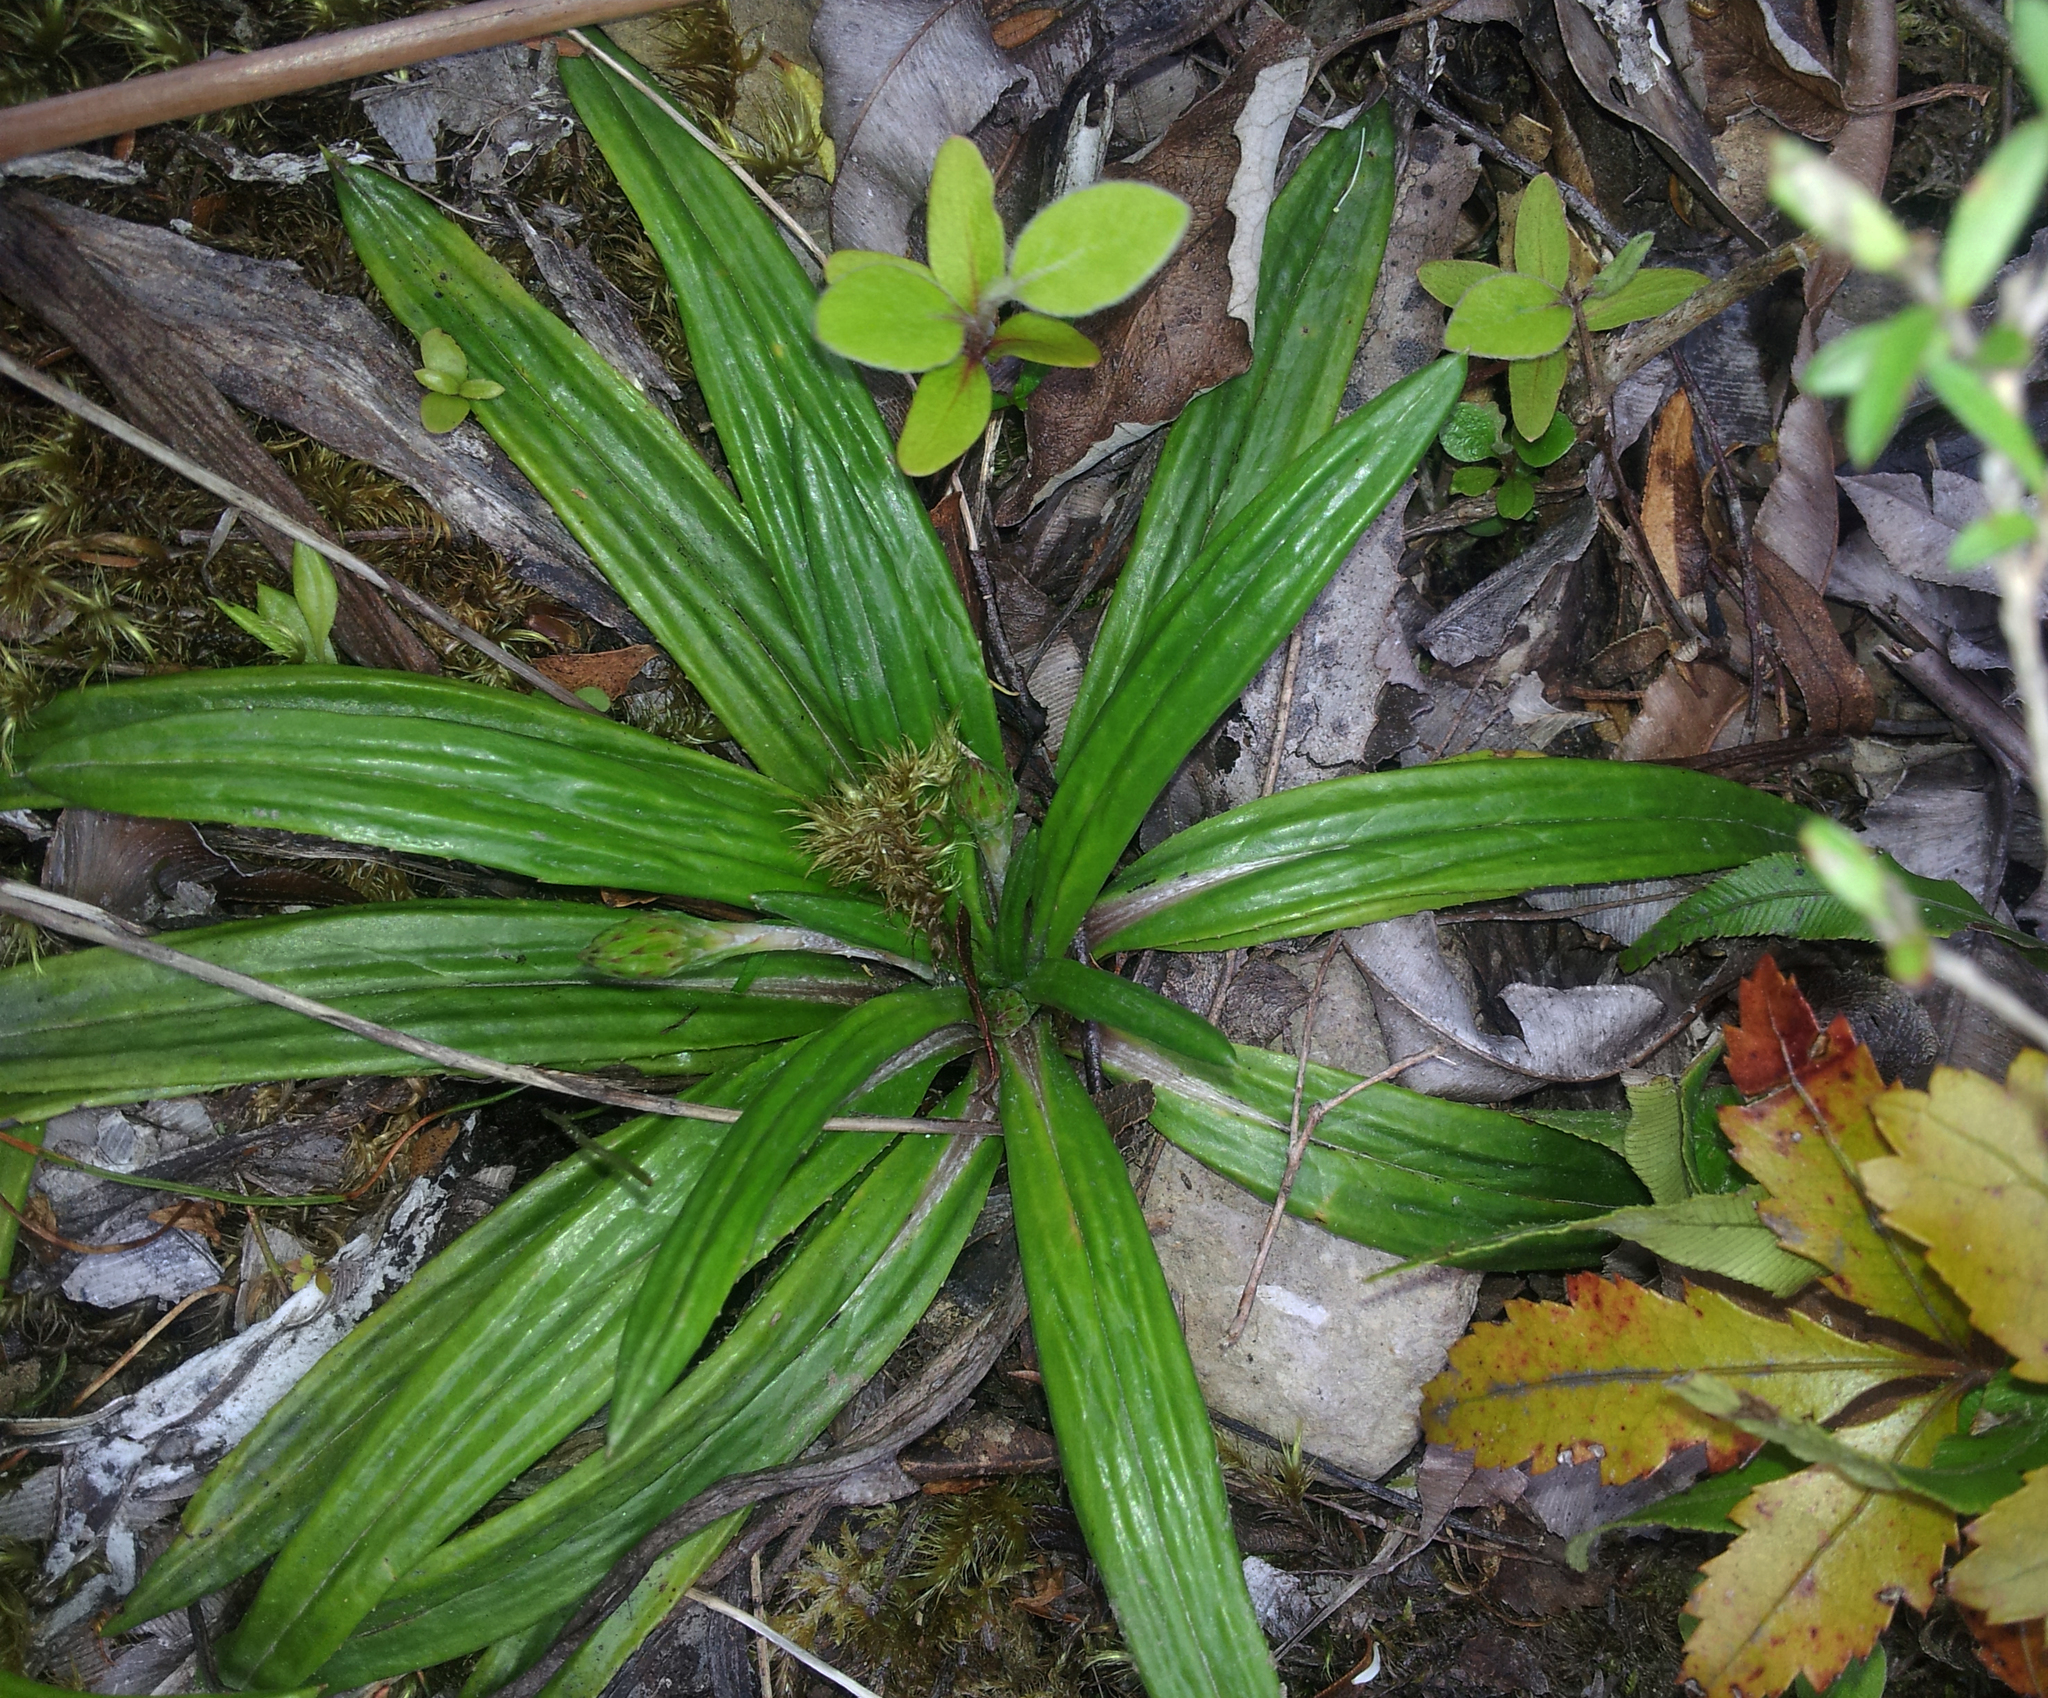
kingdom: Plantae
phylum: Tracheophyta
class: Magnoliopsida
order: Asterales
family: Asteraceae
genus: Celmisia
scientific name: Celmisia adamsii
